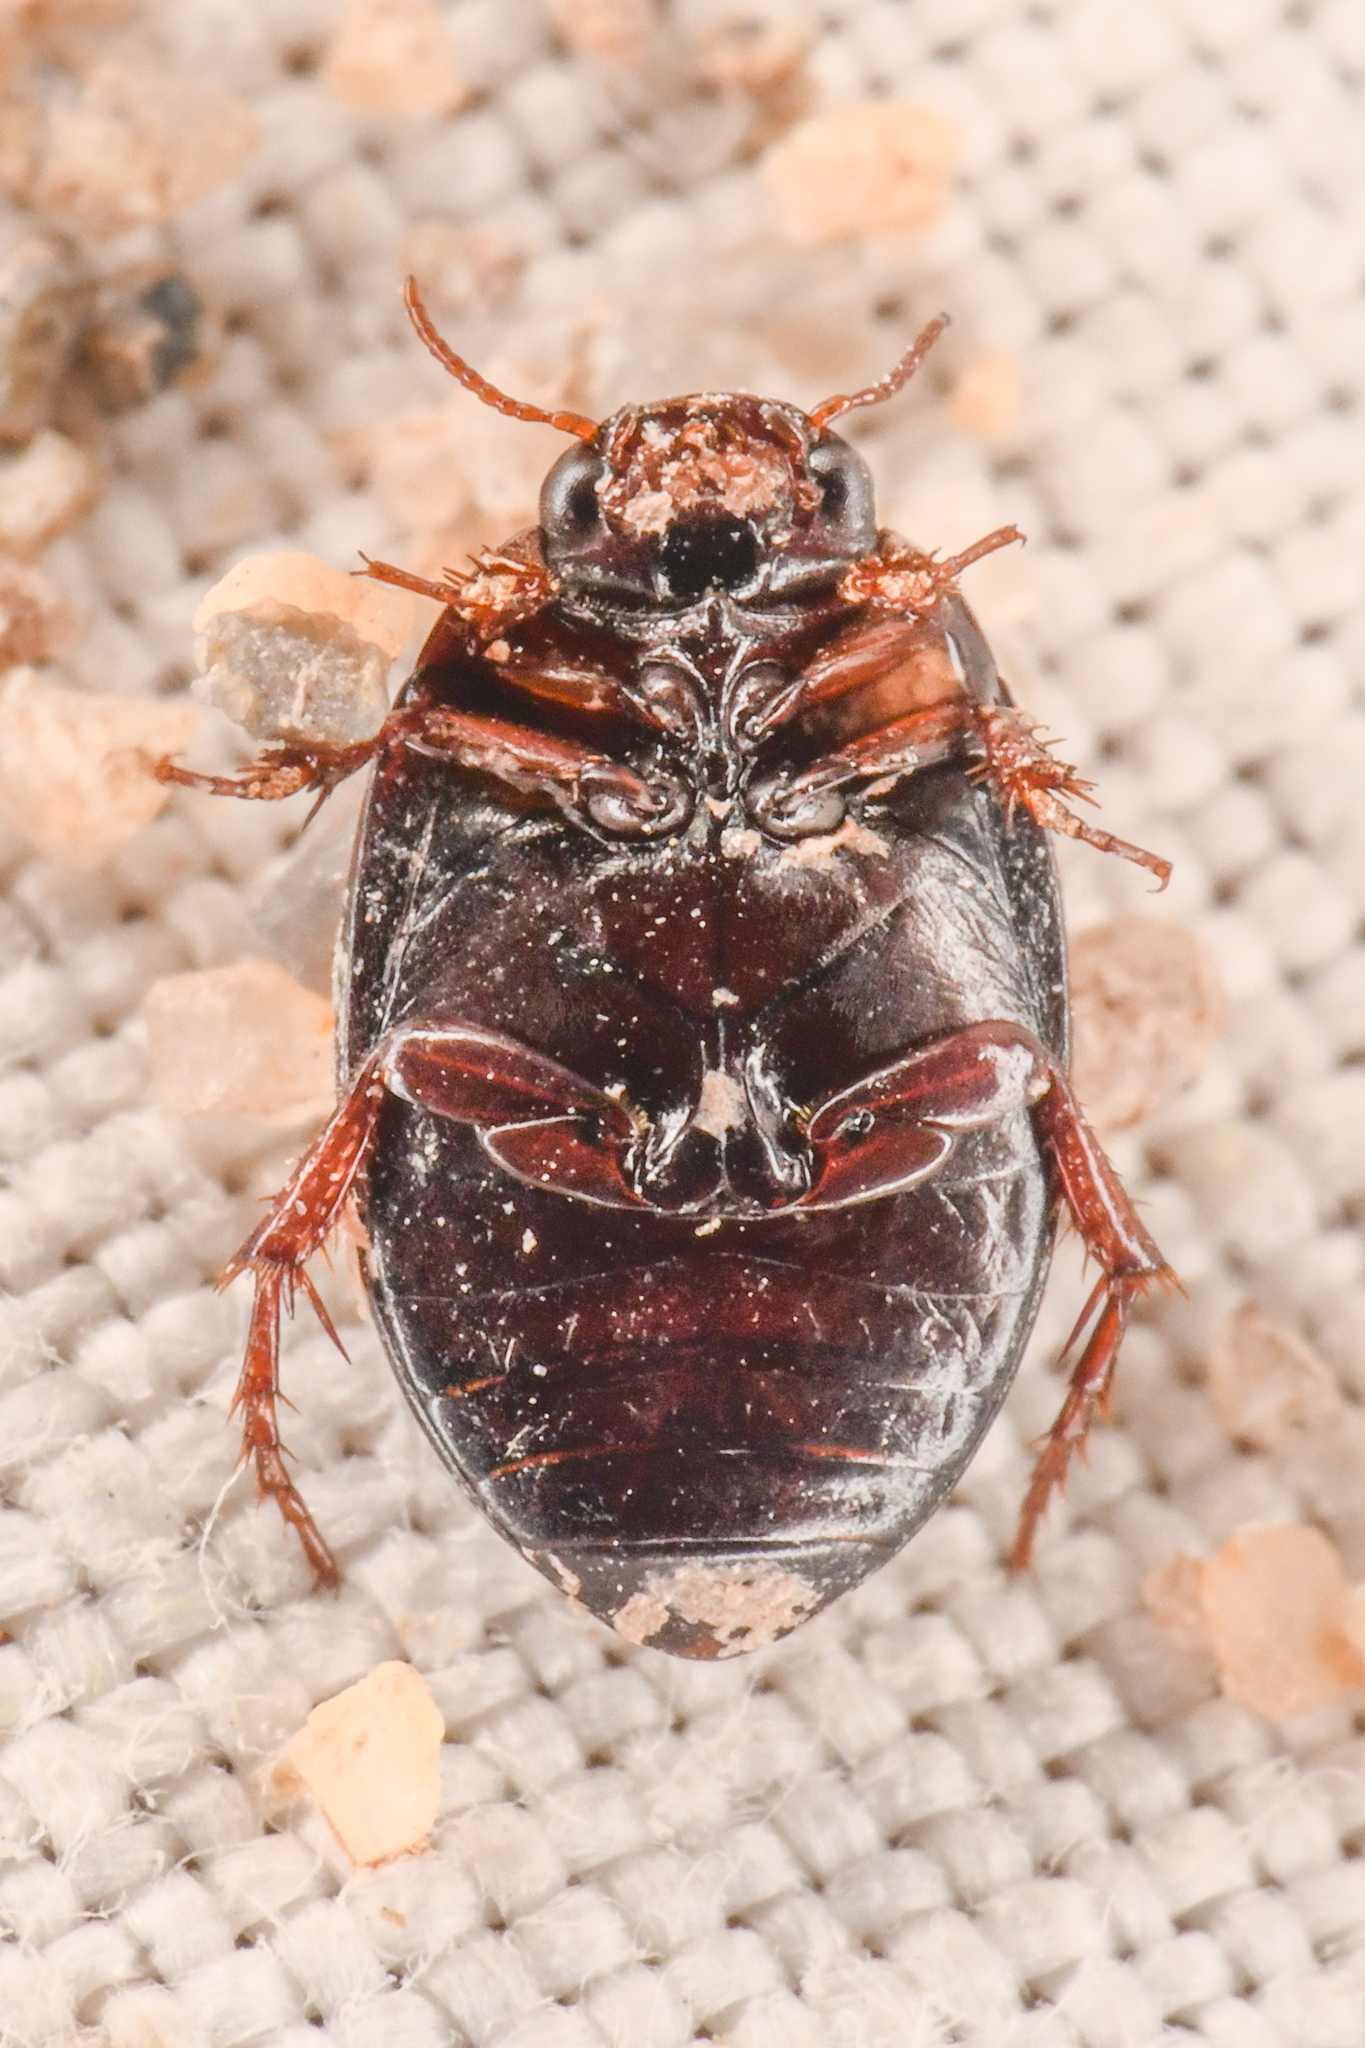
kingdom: Animalia
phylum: Arthropoda
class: Insecta
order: Coleoptera
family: Dytiscidae
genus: Hydrotrupes
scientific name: Hydrotrupes palpalis
